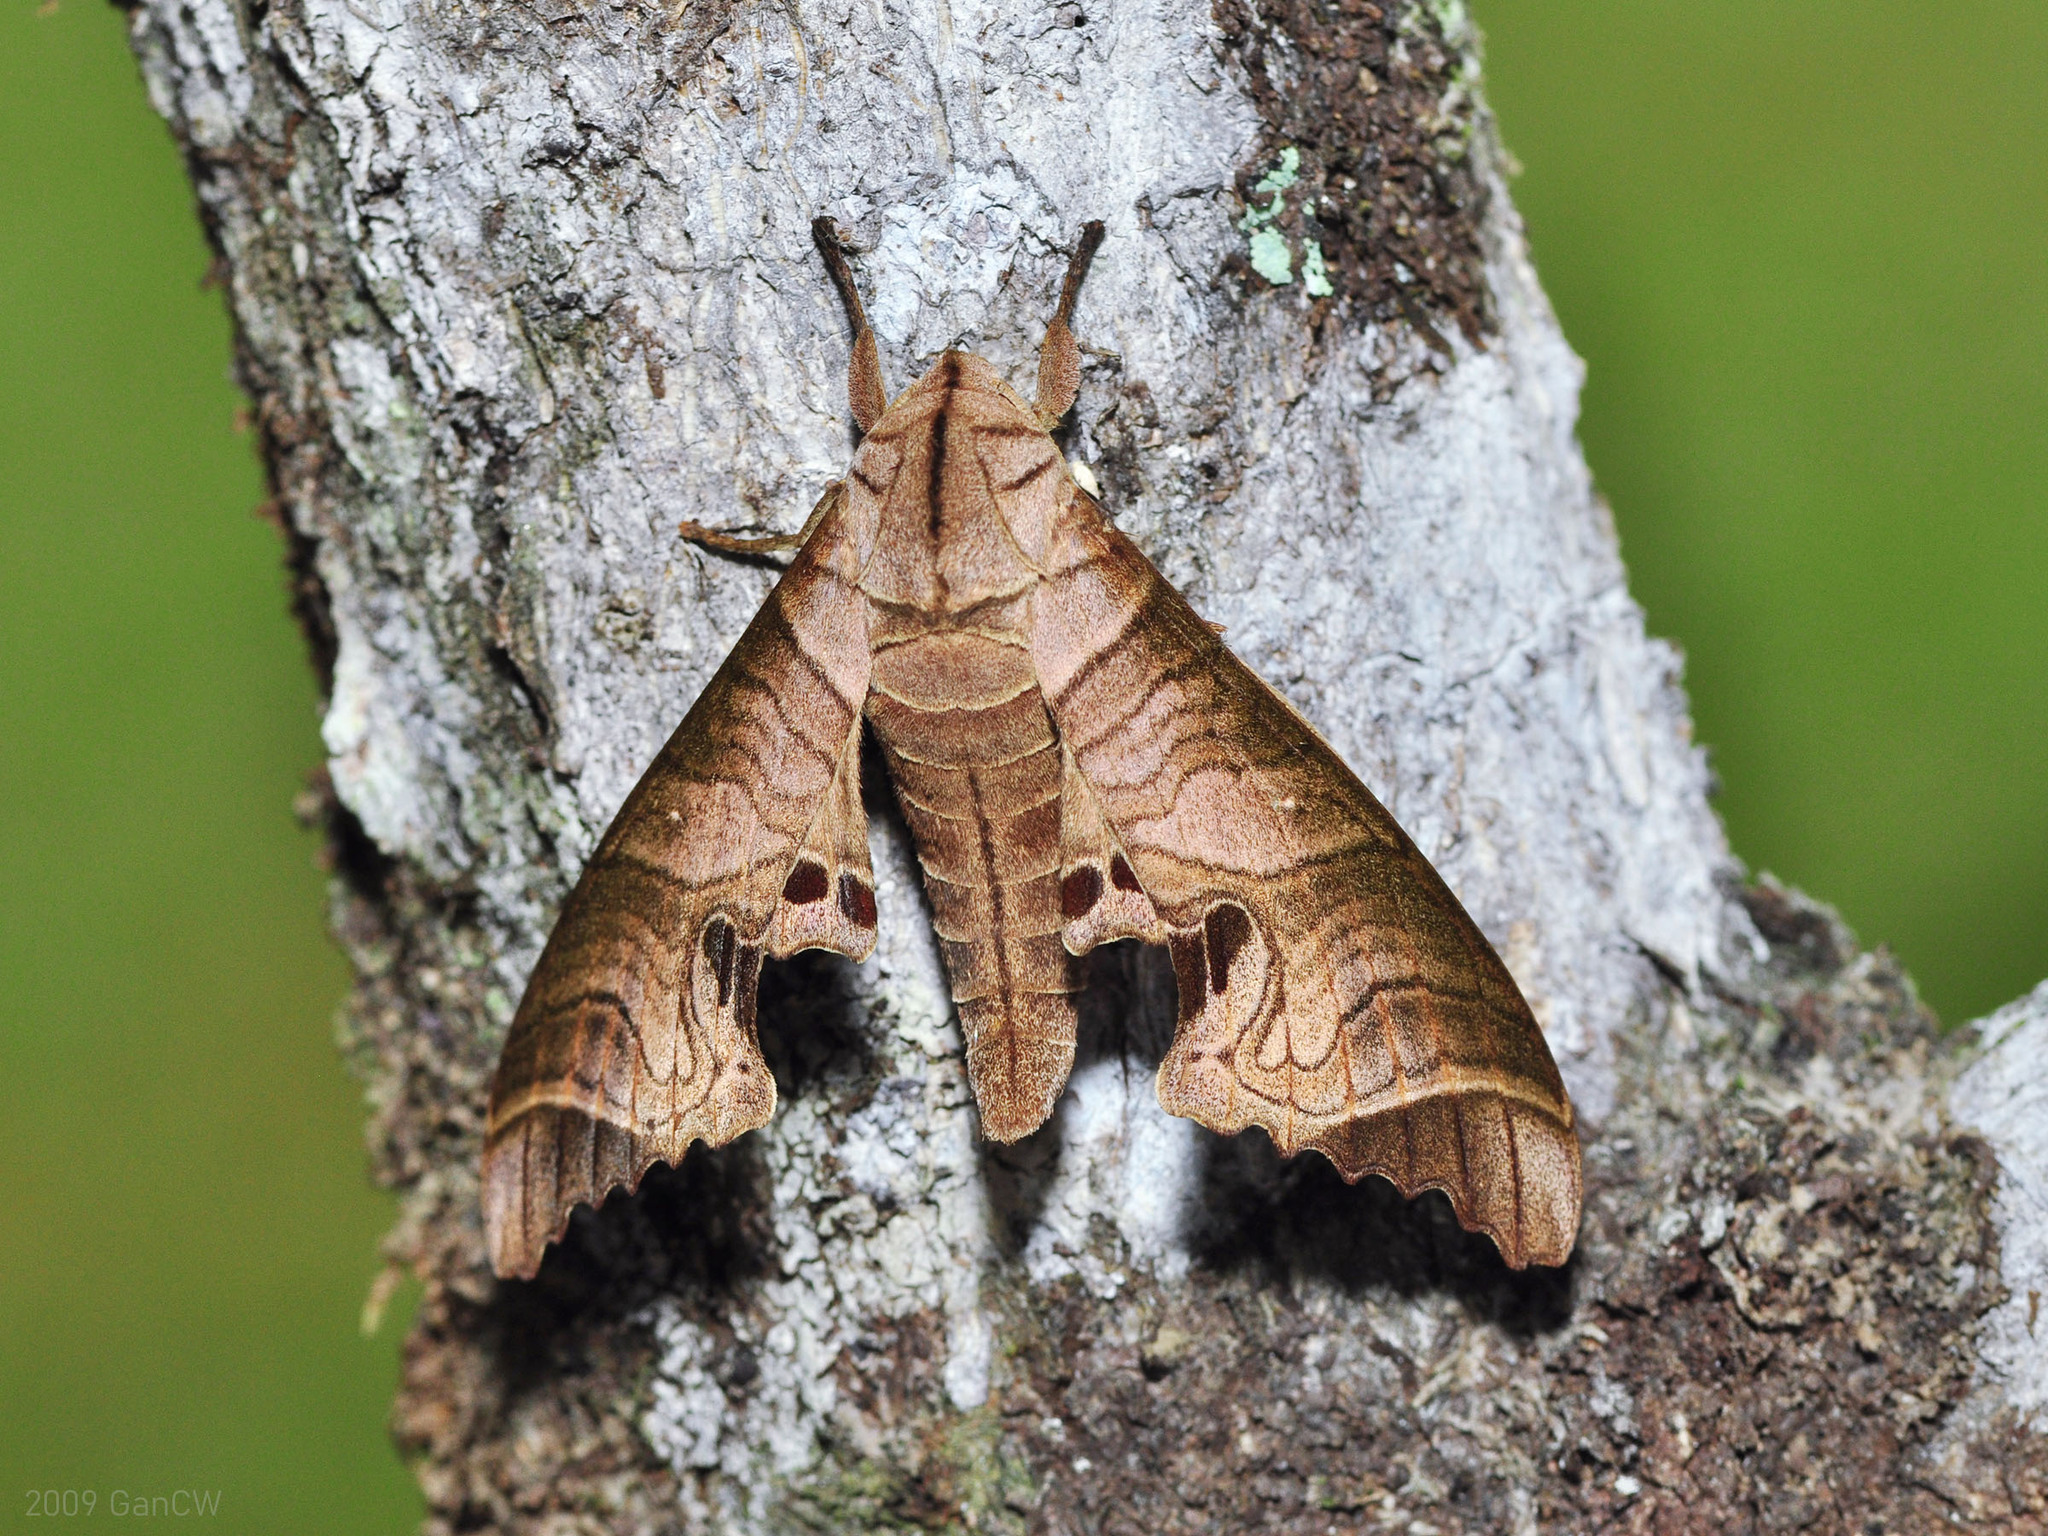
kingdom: Animalia
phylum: Arthropoda
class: Insecta
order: Lepidoptera
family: Sphingidae
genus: Marumba
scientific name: Marumba spectabilis
